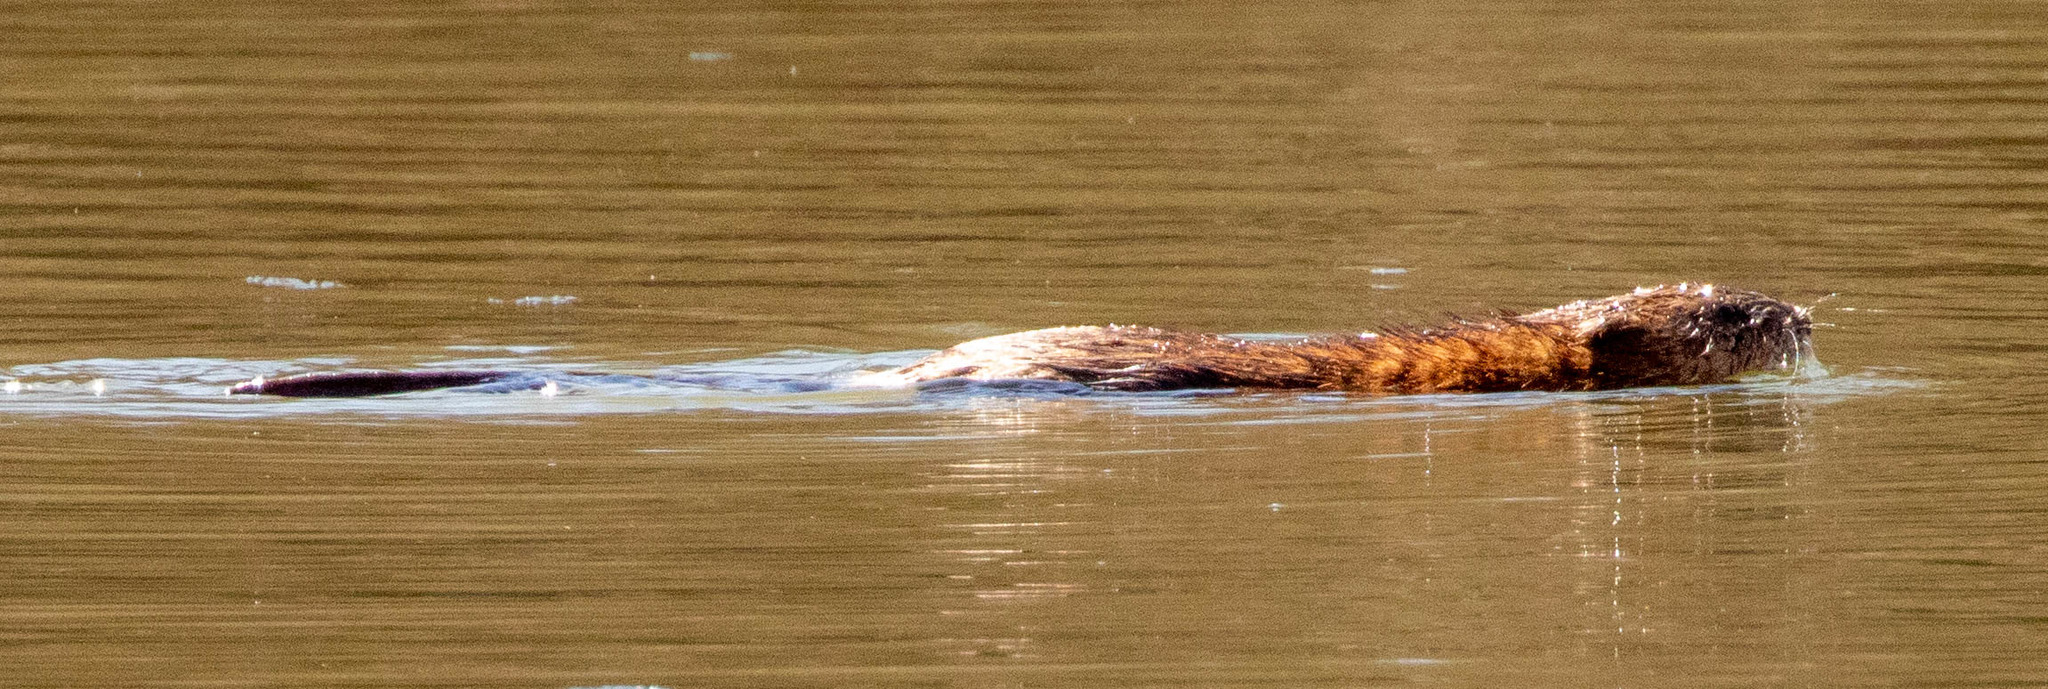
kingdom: Animalia
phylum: Chordata
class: Mammalia
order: Rodentia
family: Cricetidae
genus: Ondatra
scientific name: Ondatra zibethicus
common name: Muskrat
